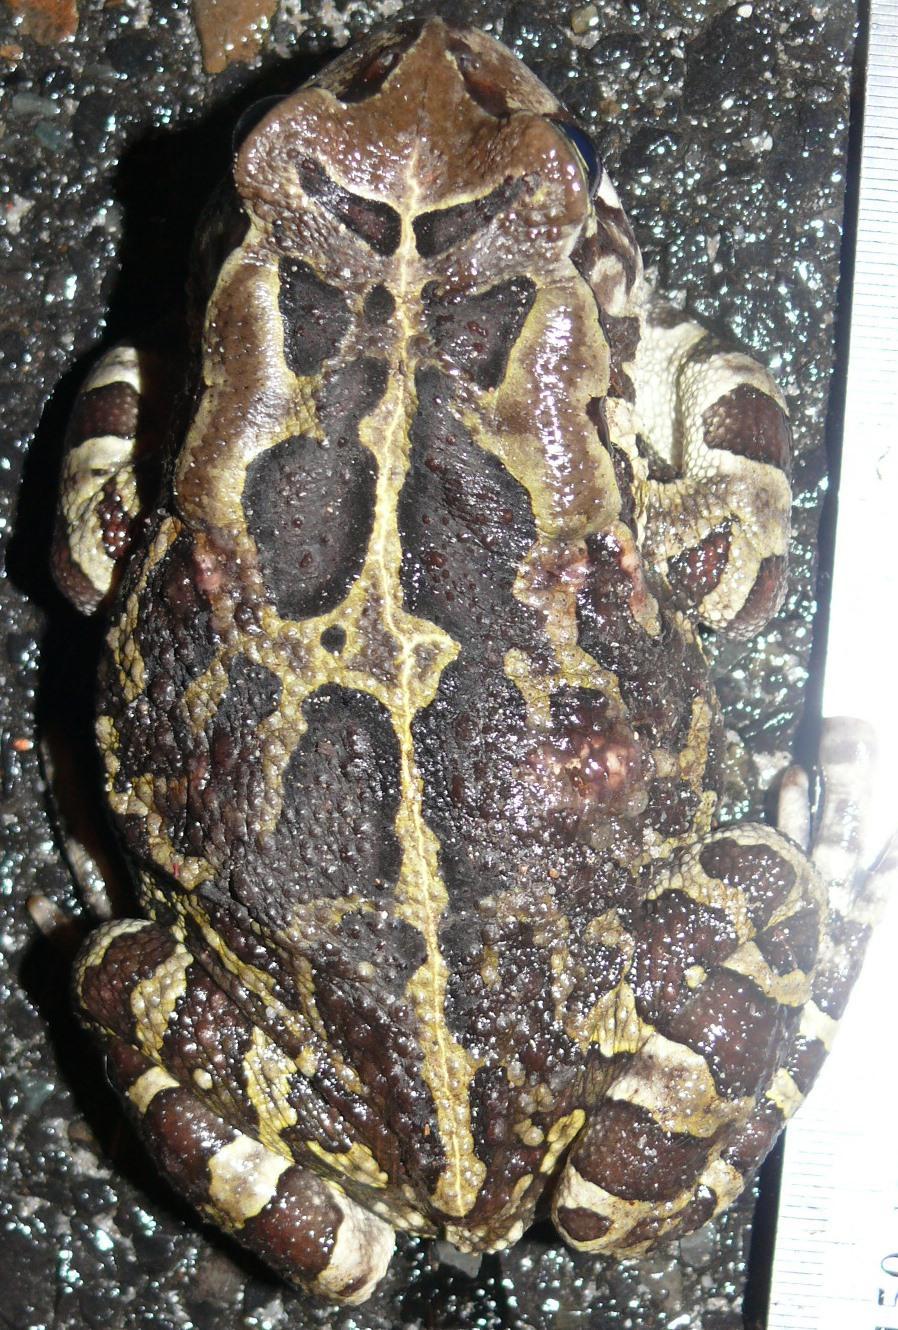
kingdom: Animalia
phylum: Chordata
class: Amphibia
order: Anura
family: Bufonidae
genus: Sclerophrys
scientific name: Sclerophrys pantherina
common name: Panther toad
